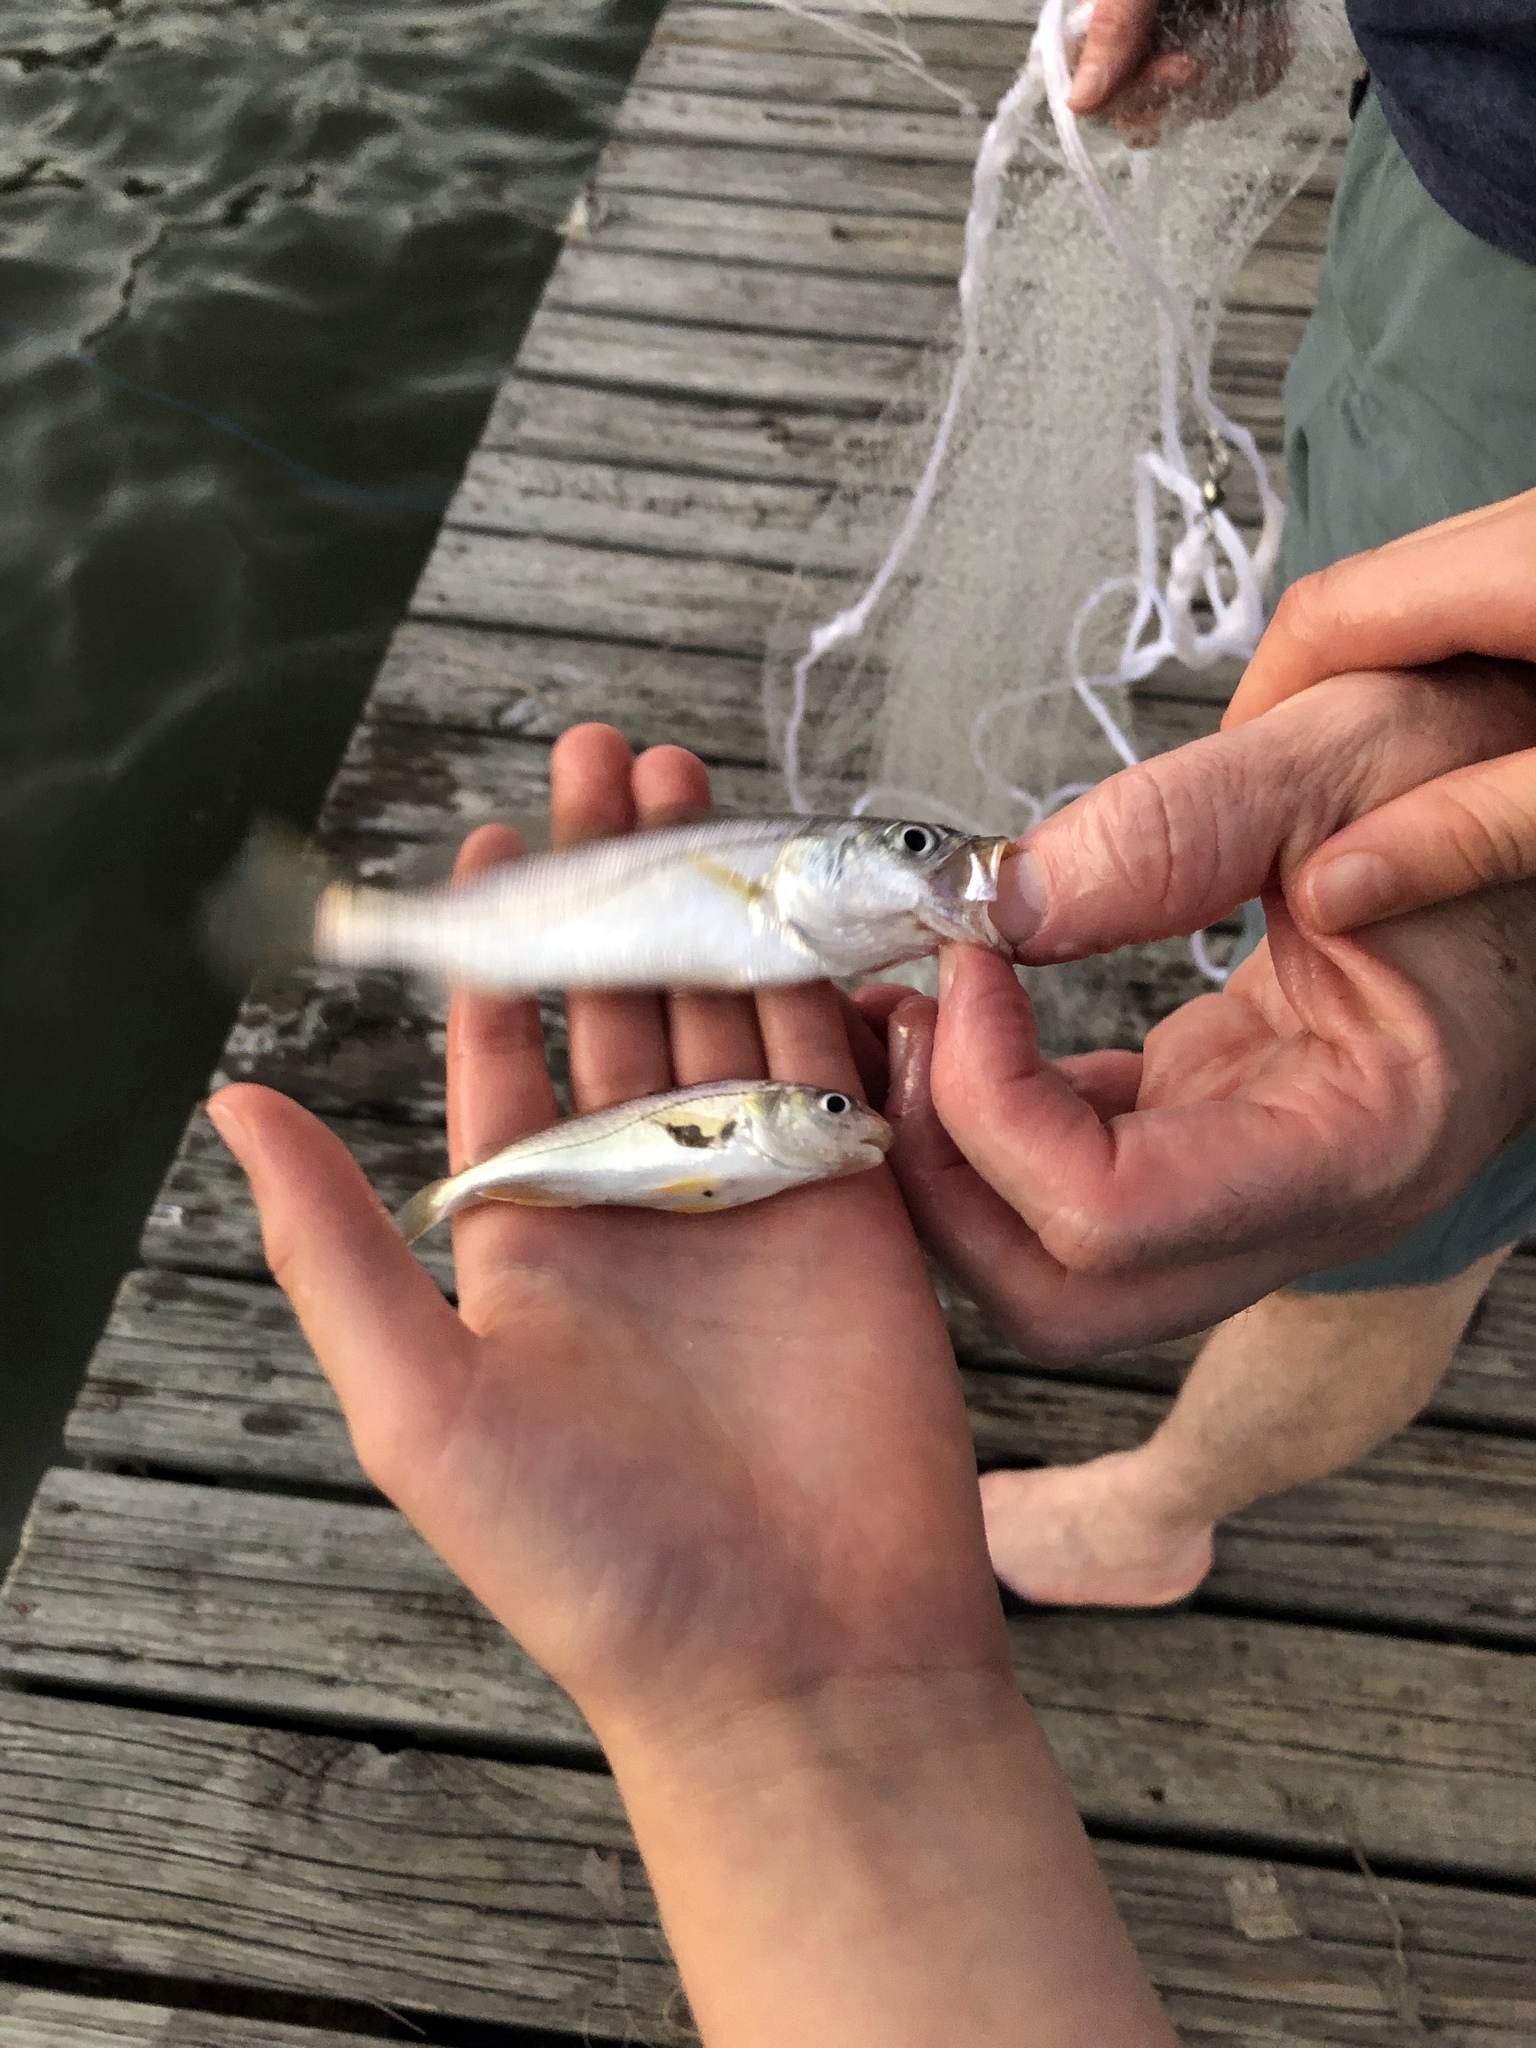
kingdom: Animalia
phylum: Chordata
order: Perciformes
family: Sciaenidae
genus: Cynoscion
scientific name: Cynoscion arenarius
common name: Sand seatrout
